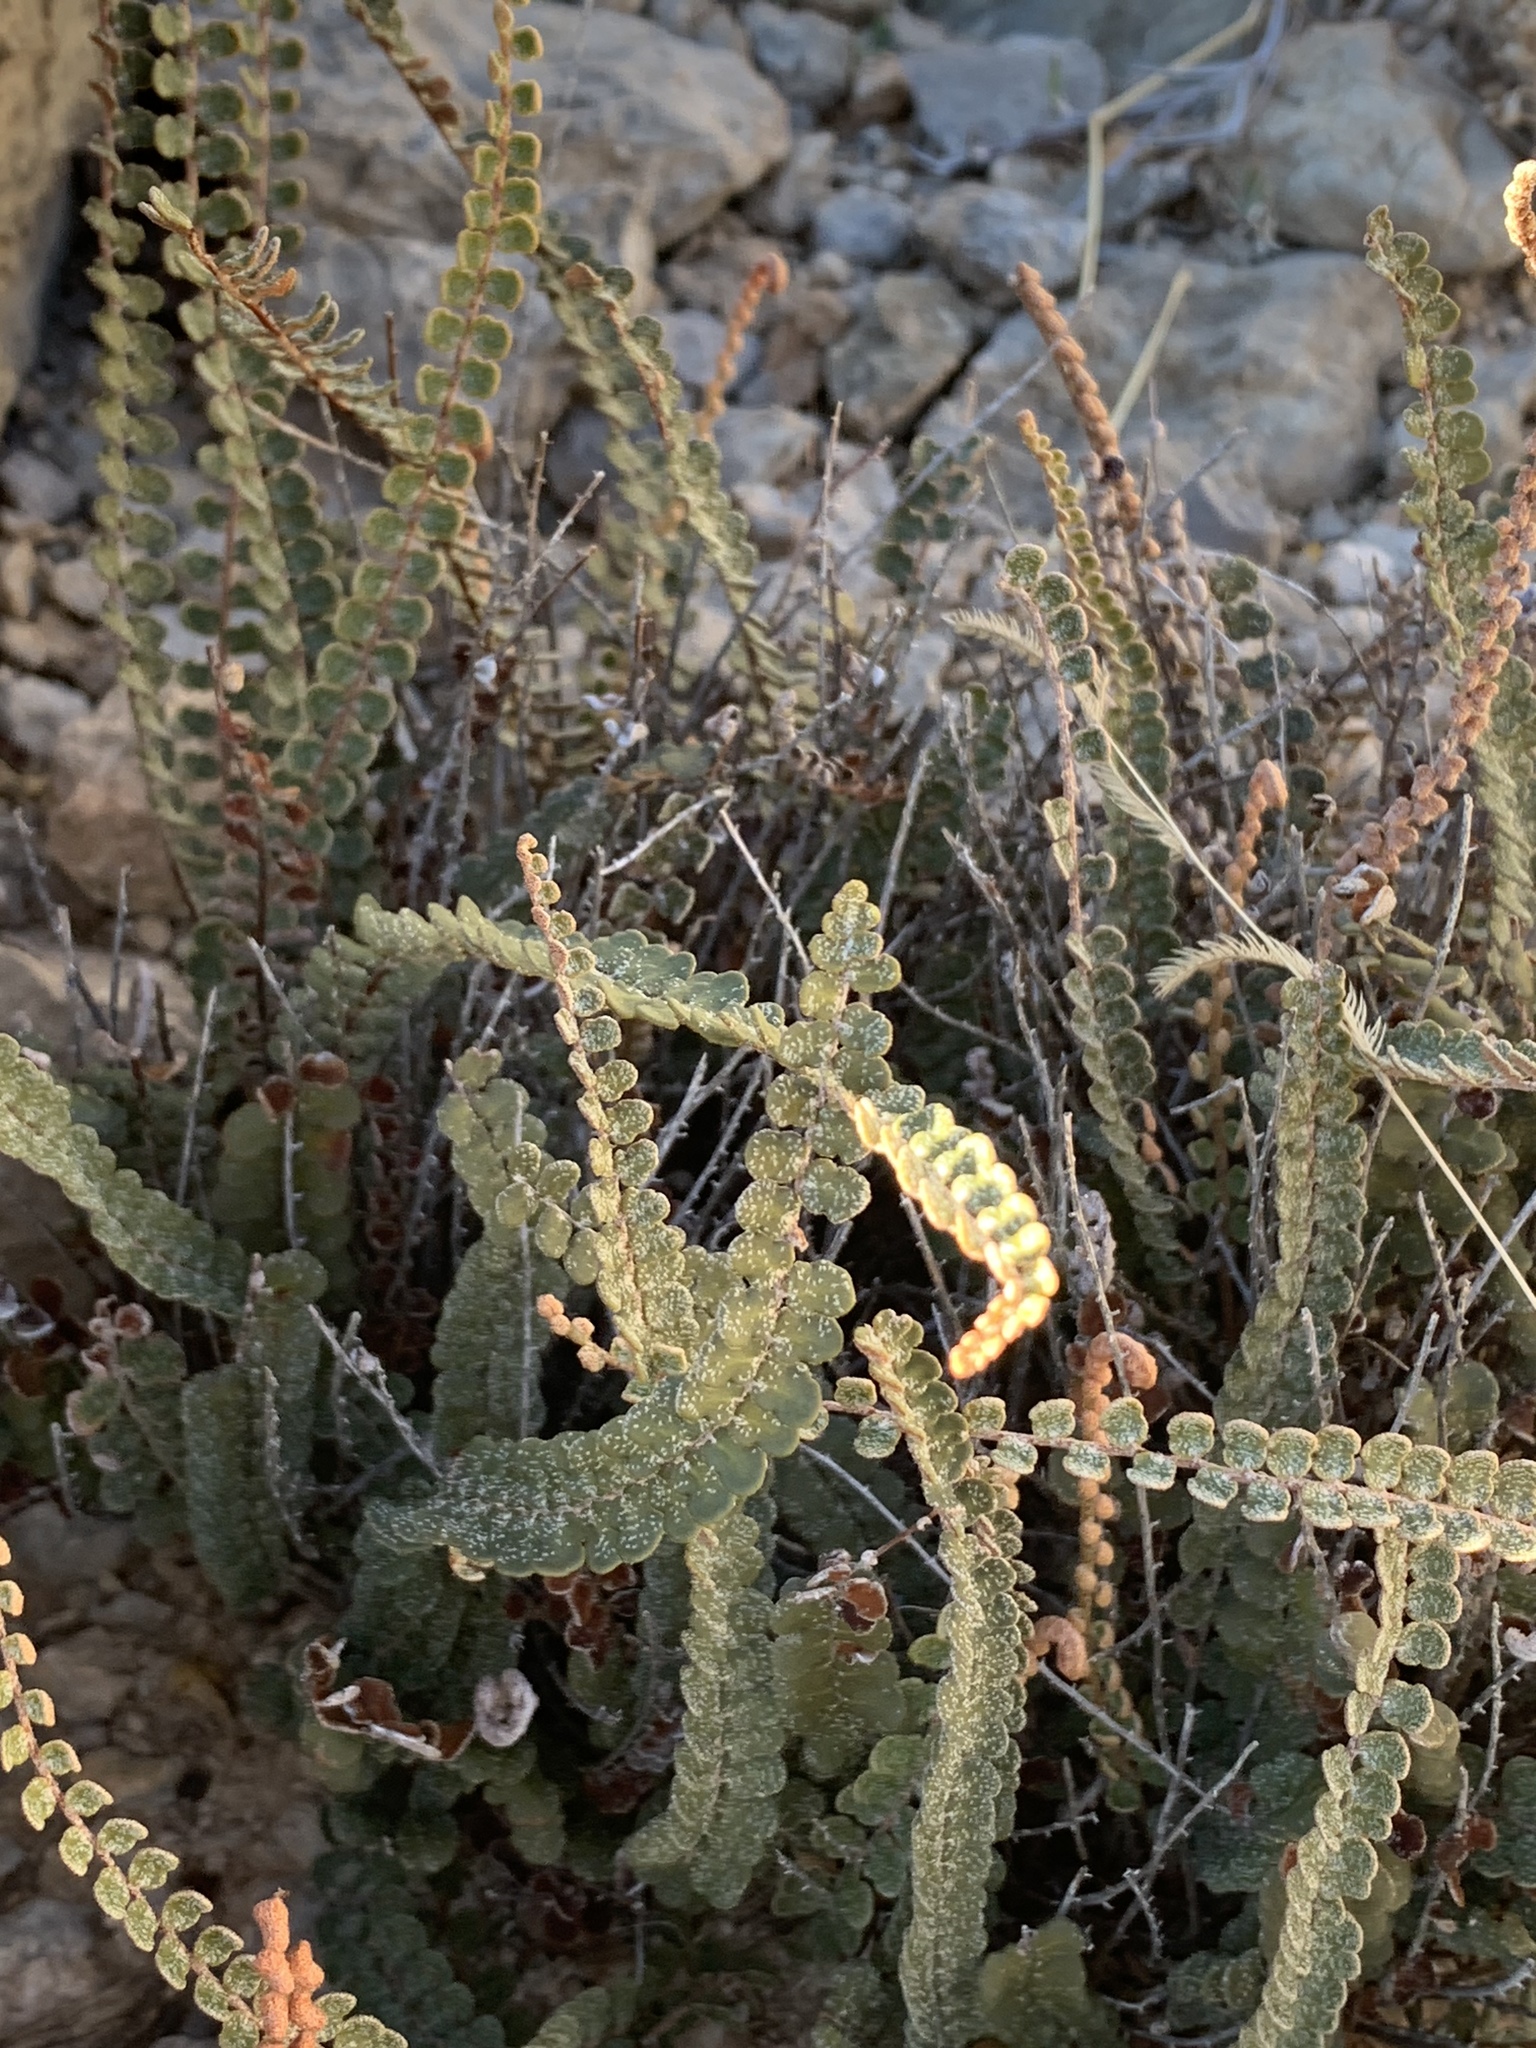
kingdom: Plantae
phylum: Tracheophyta
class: Polypodiopsida
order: Polypodiales
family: Pteridaceae
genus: Astrolepis
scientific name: Astrolepis cochisensis
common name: Scaly cloak fern
